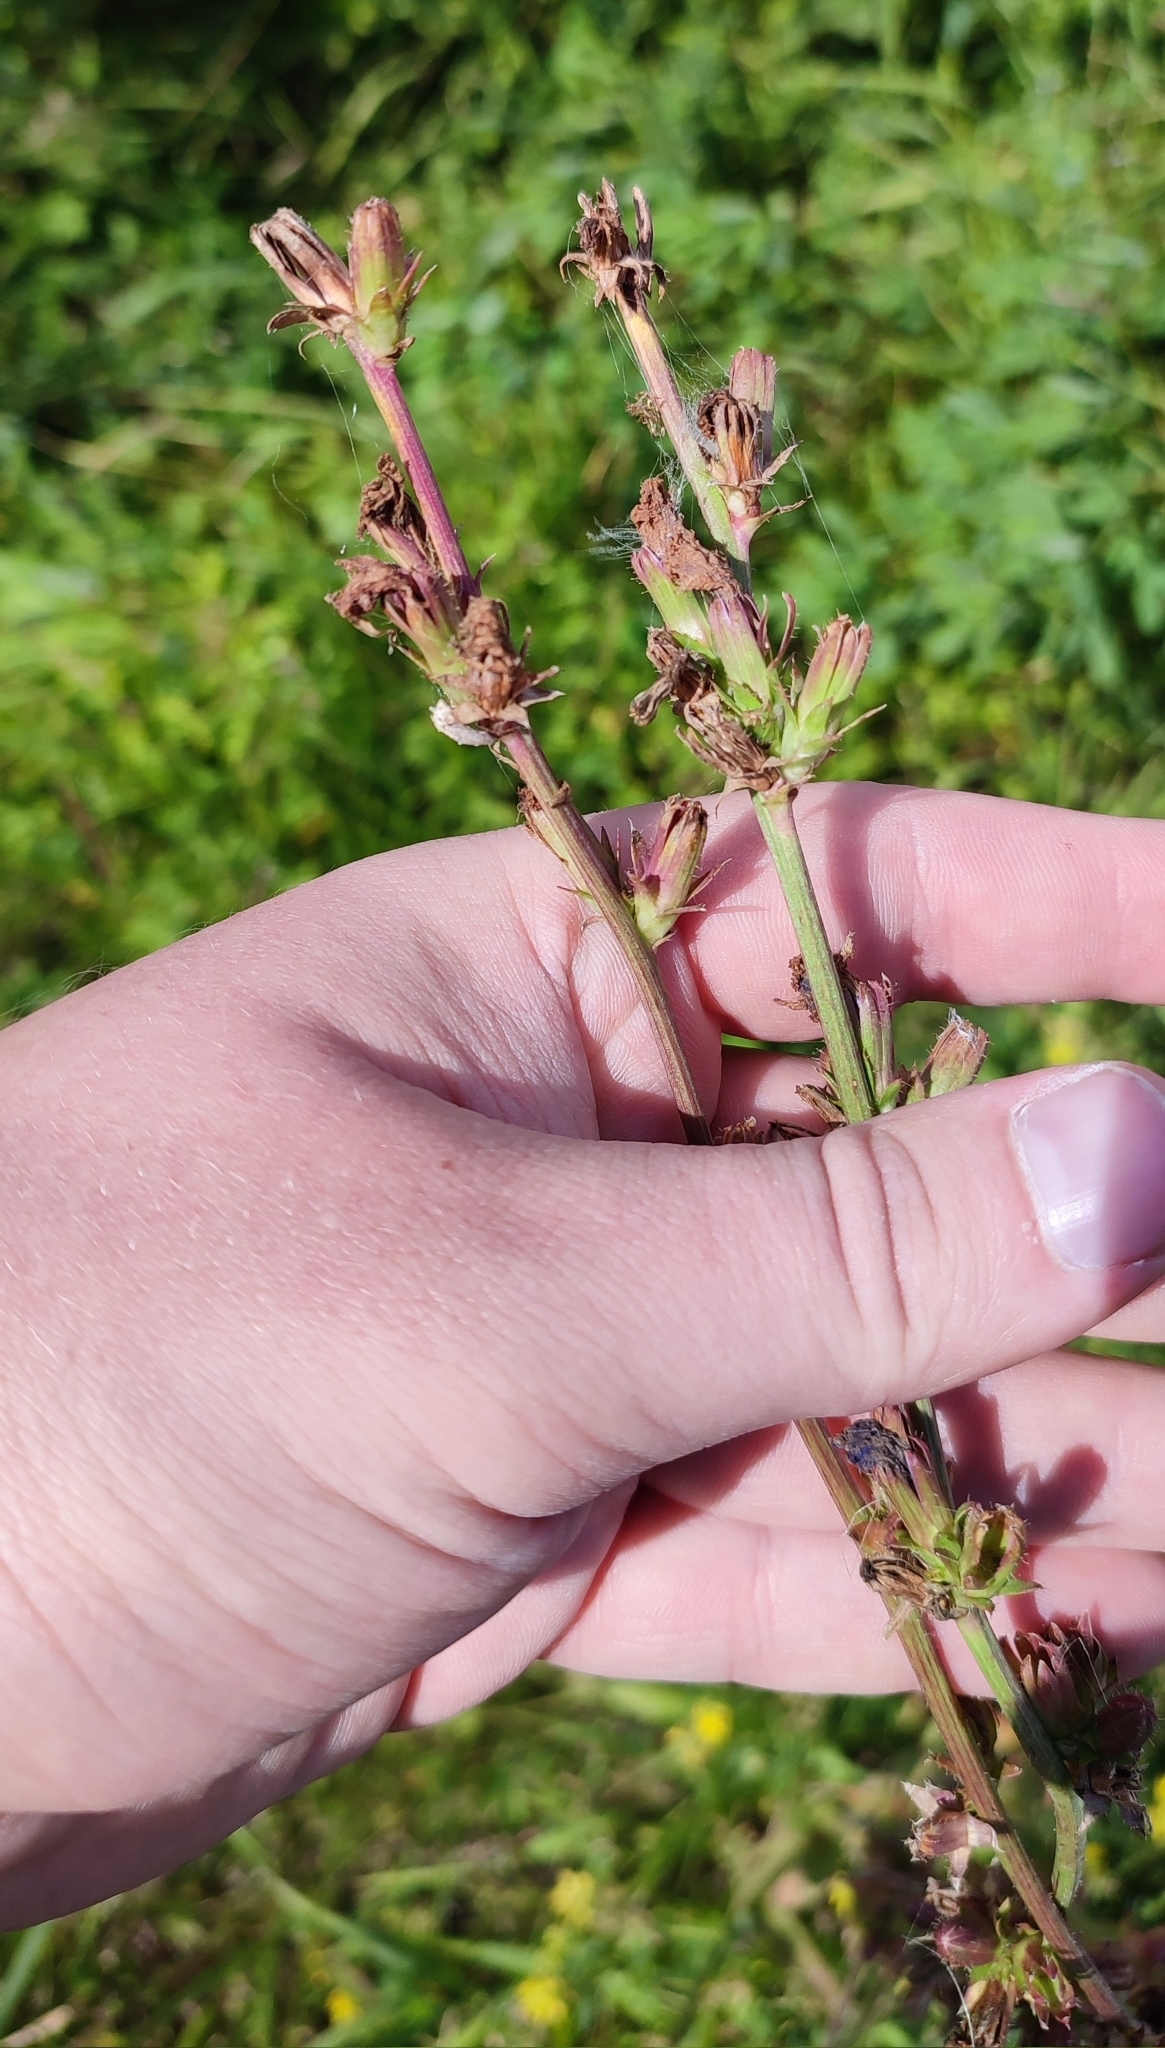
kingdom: Plantae
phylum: Tracheophyta
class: Magnoliopsida
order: Asterales
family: Asteraceae
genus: Cichorium
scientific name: Cichorium intybus
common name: Chicory
